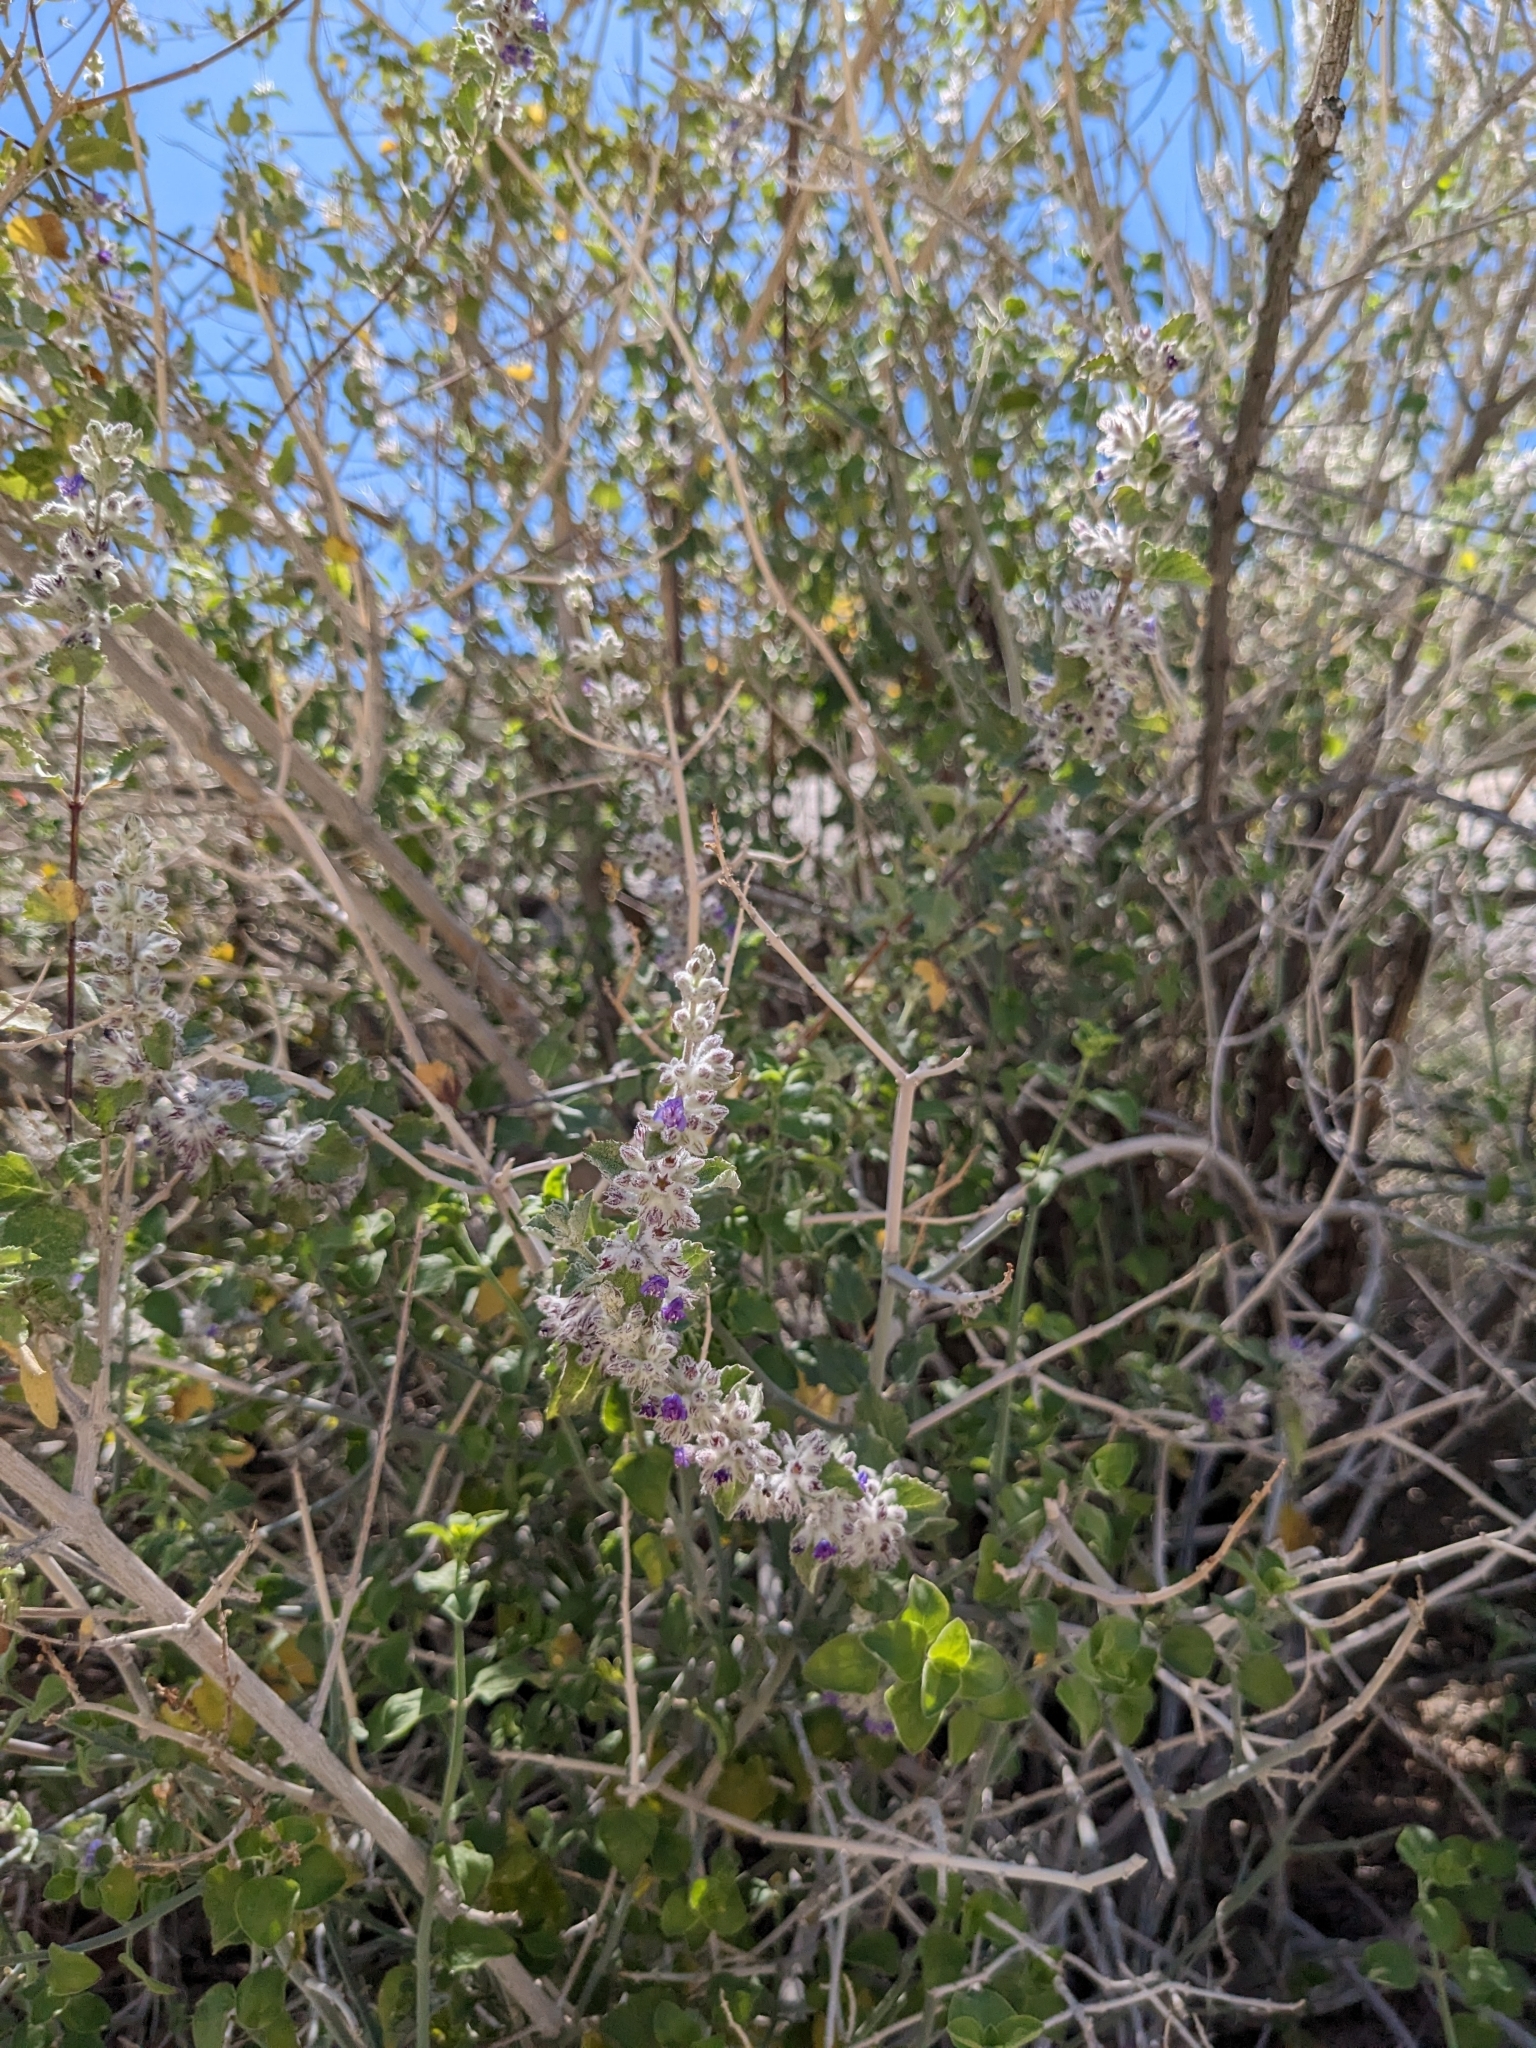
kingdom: Plantae
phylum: Tracheophyta
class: Magnoliopsida
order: Lamiales
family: Lamiaceae
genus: Condea
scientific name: Condea emoryi
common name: Chia
